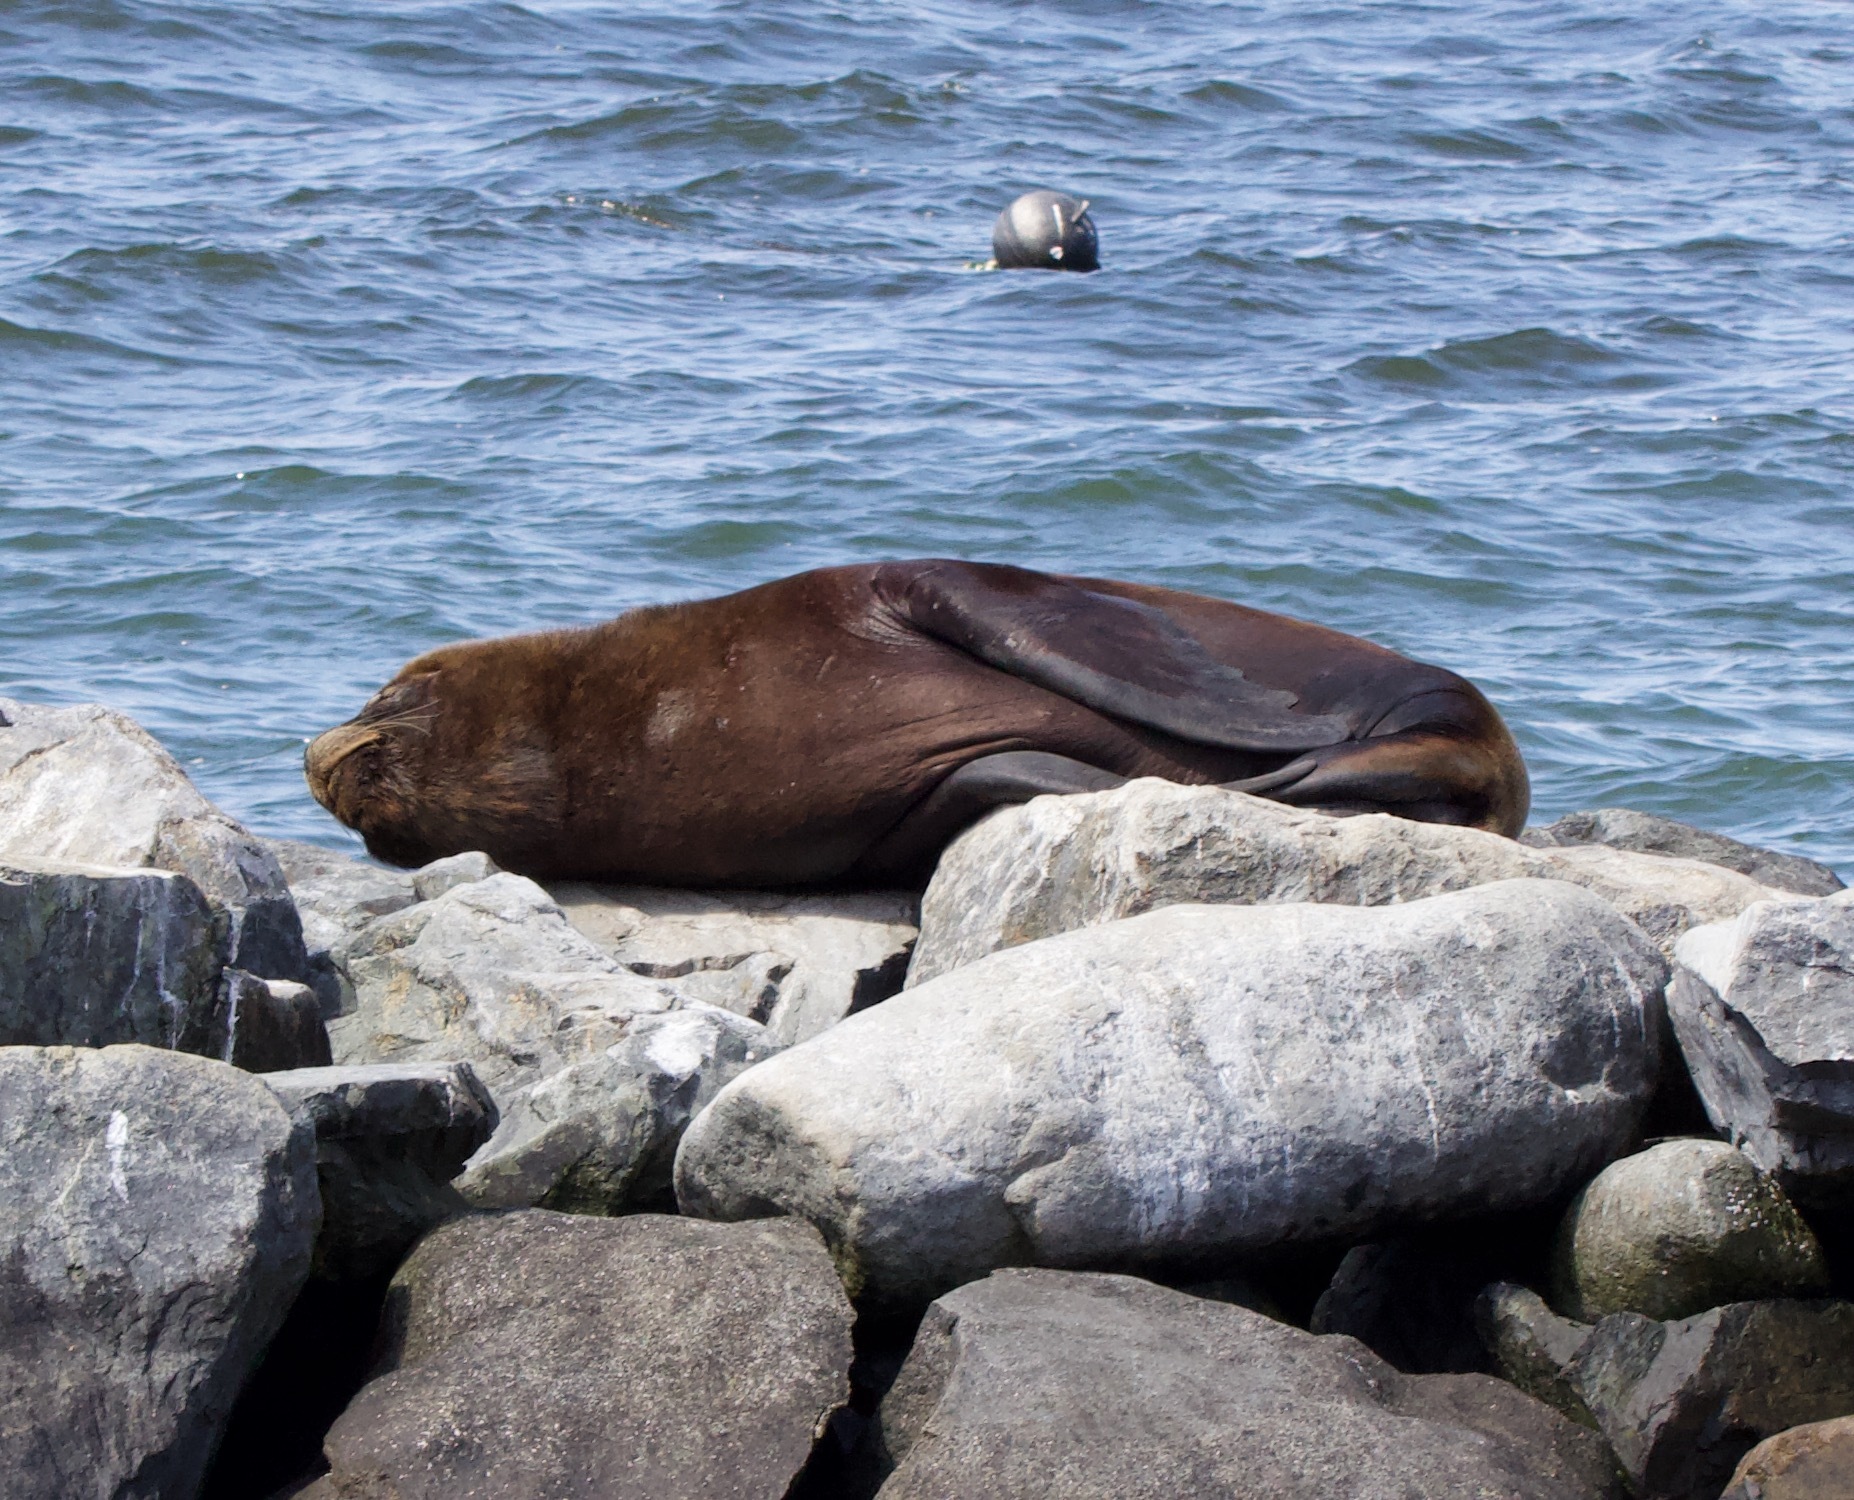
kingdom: Animalia
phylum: Chordata
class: Mammalia
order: Carnivora
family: Otariidae
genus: Otaria
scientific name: Otaria byronia
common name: South american sea lion
